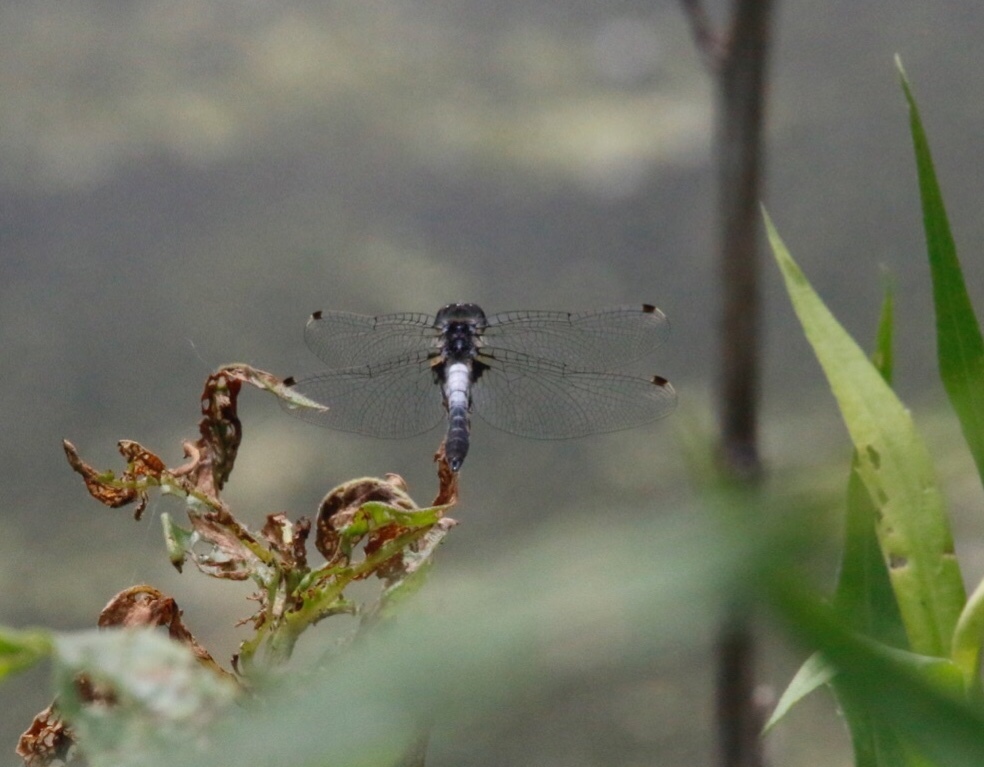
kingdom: Animalia
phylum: Arthropoda
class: Insecta
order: Odonata
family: Libellulidae
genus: Leucorrhinia
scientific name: Leucorrhinia frigida
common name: Frosted whiteface
